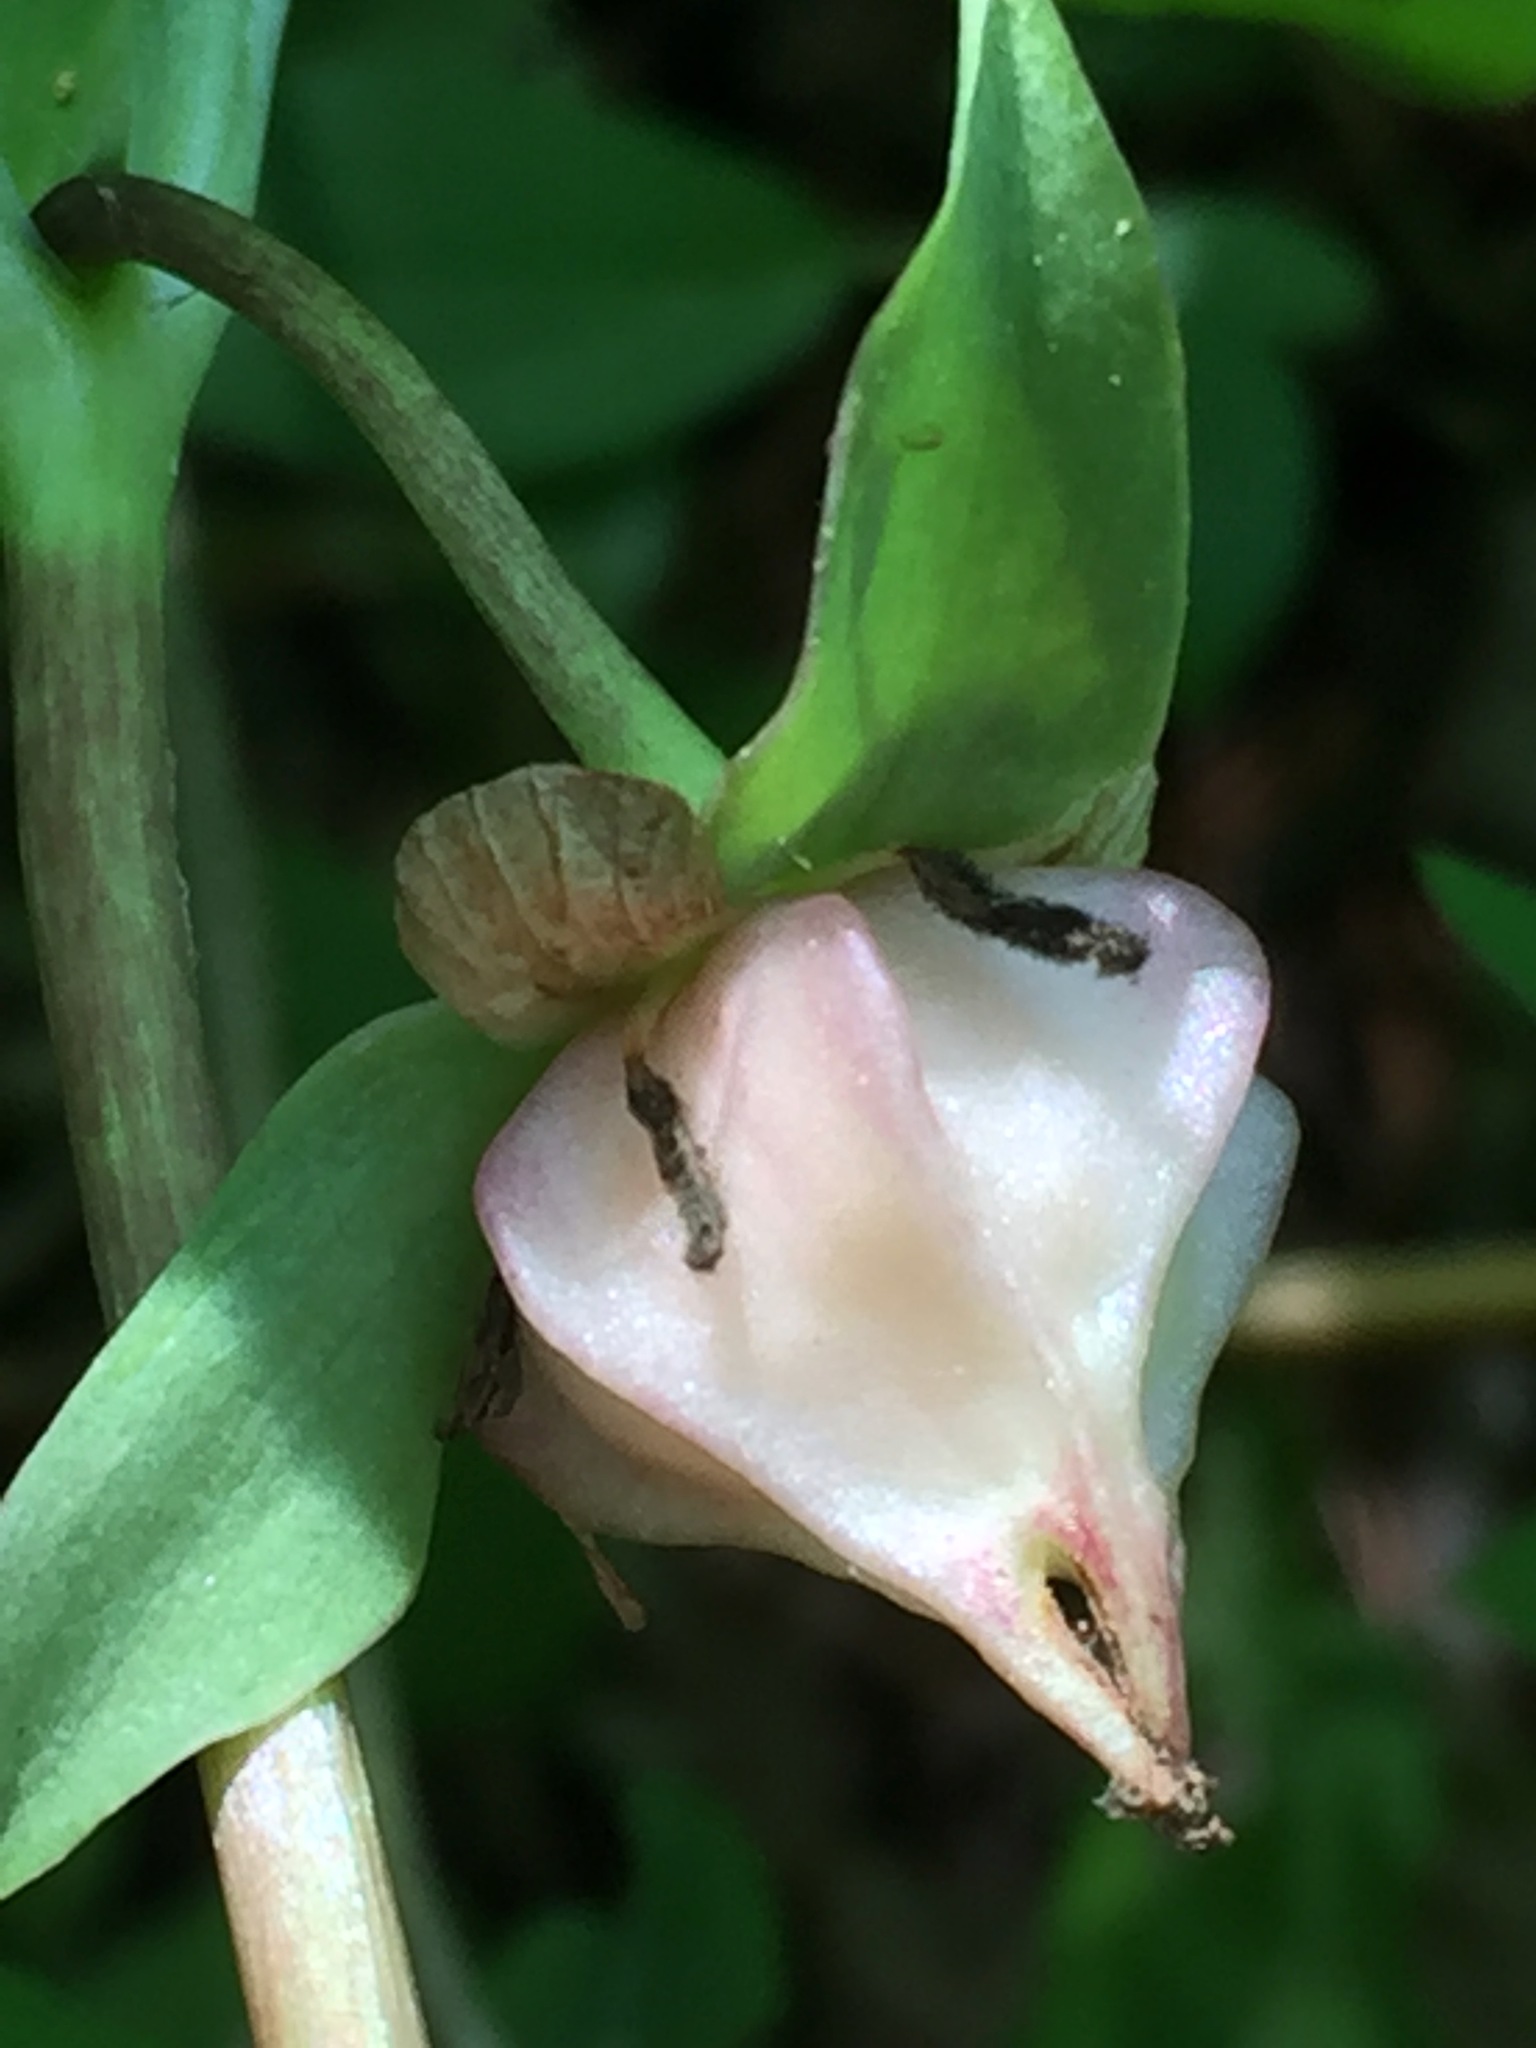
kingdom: Plantae
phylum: Tracheophyta
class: Liliopsida
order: Liliales
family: Melanthiaceae
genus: Trillium
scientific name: Trillium cernuum
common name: Nodding trillium
